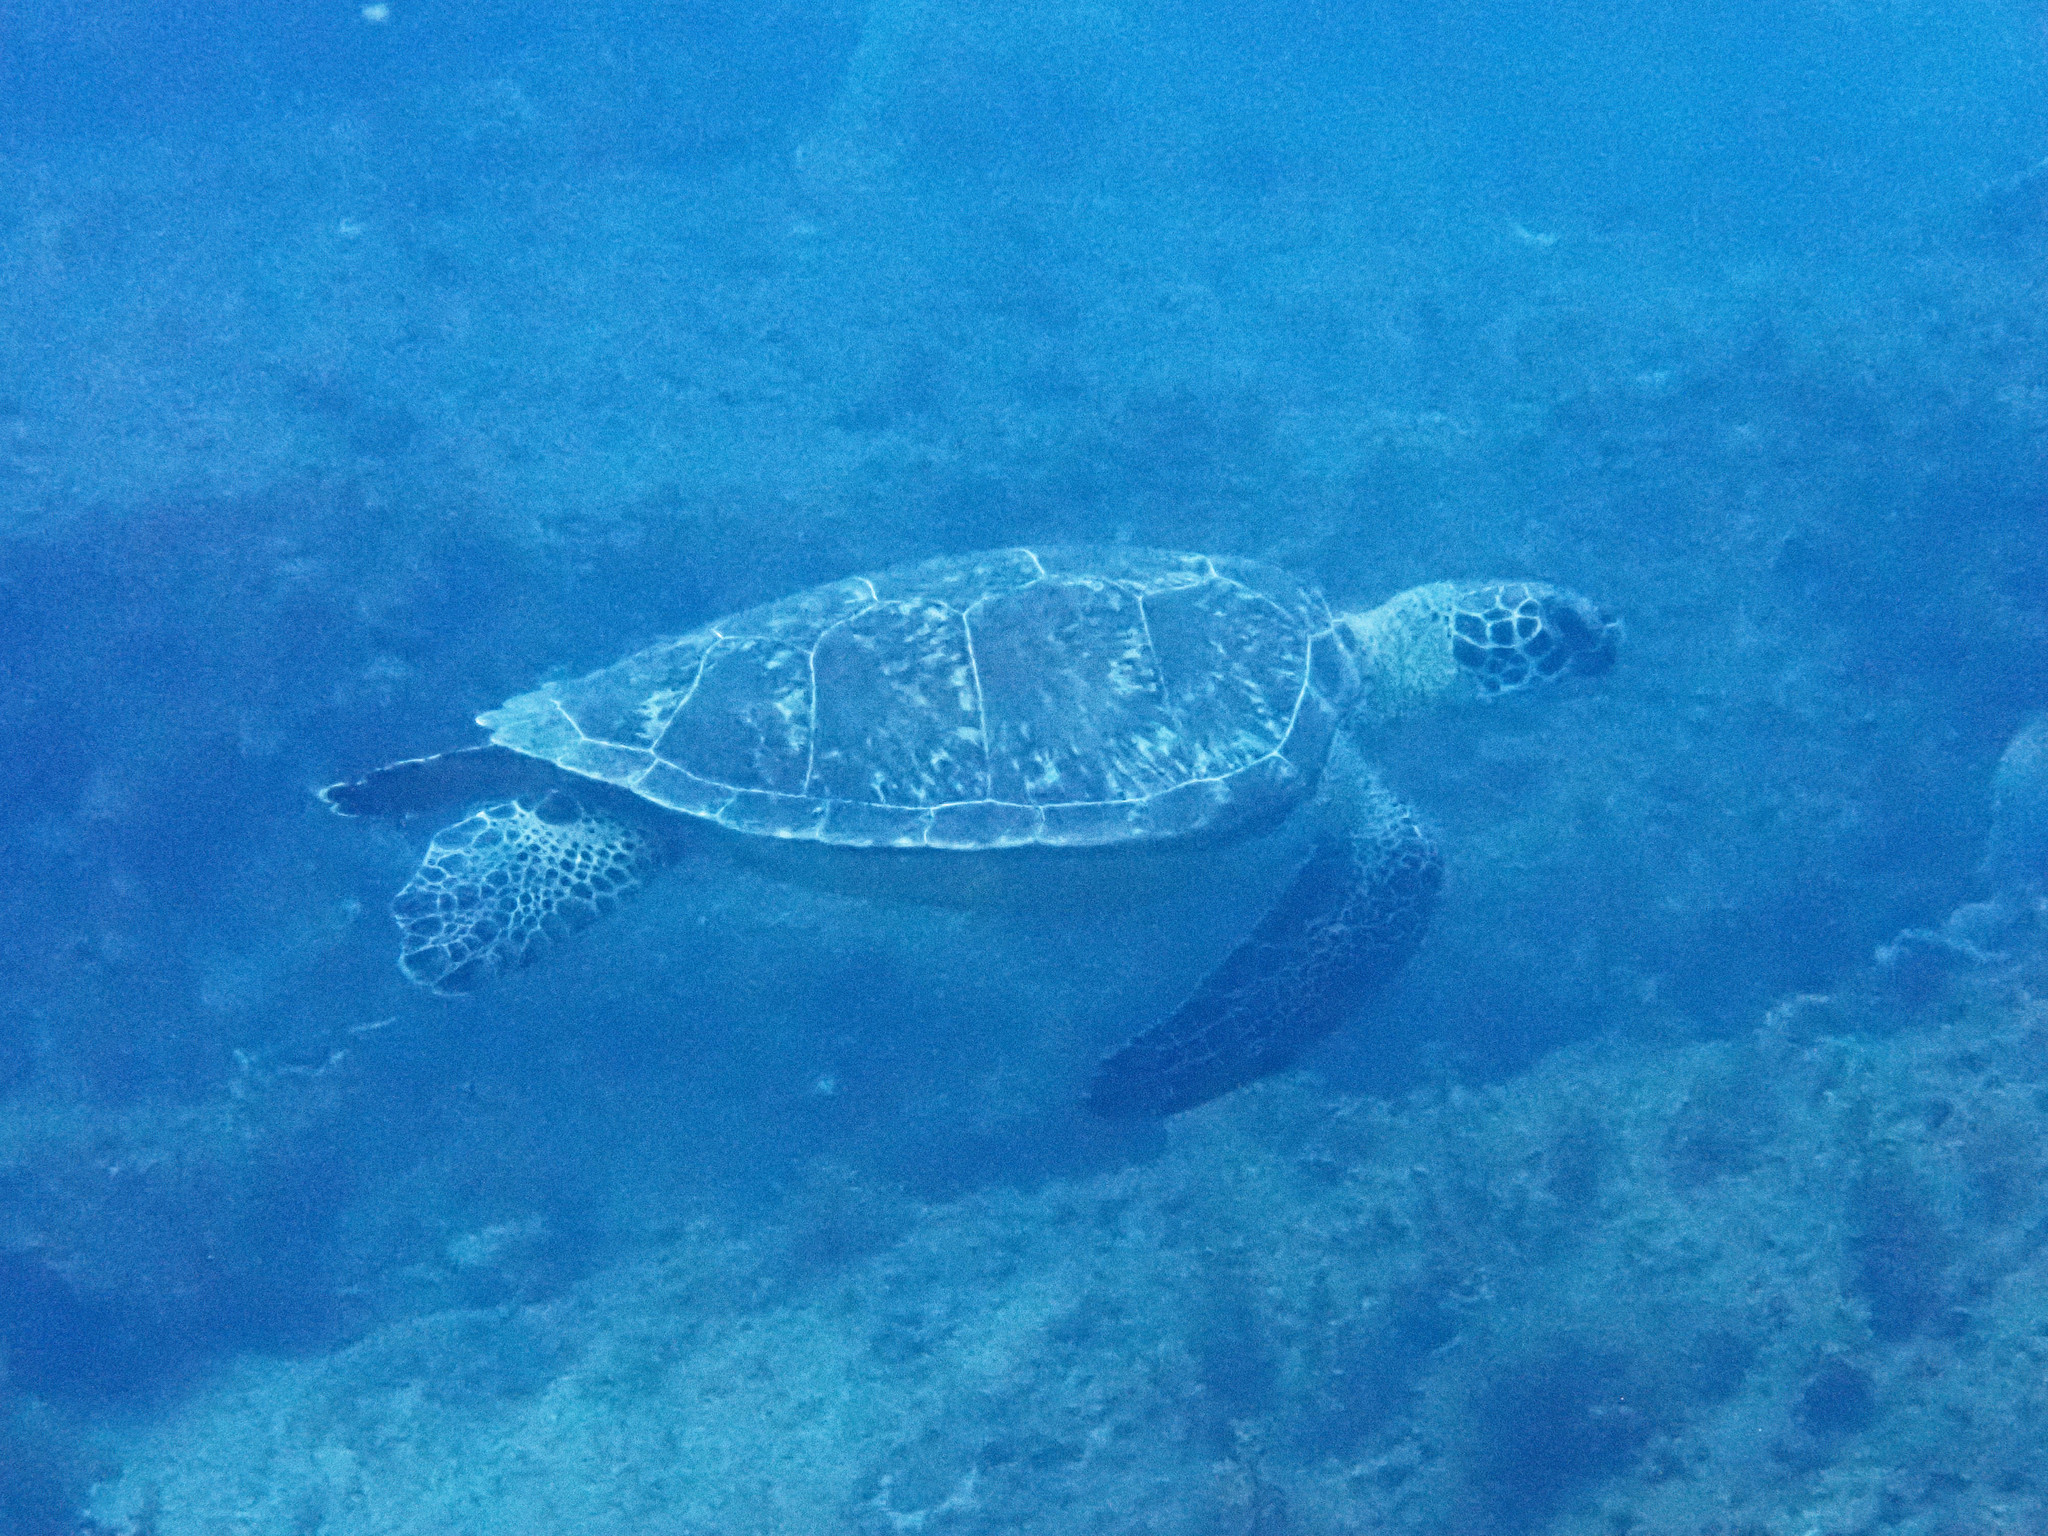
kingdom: Animalia
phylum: Chordata
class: Testudines
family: Cheloniidae
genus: Chelonia
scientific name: Chelonia mydas
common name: Green turtle
